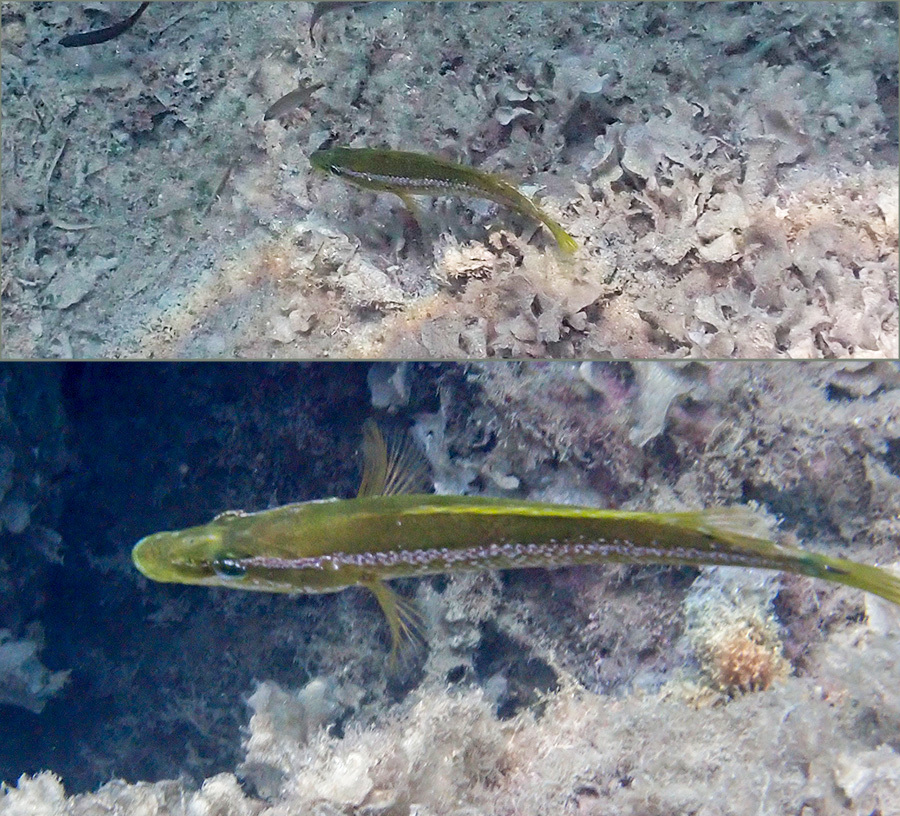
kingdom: Animalia
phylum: Chordata
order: Perciformes
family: Labridae
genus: Labrus
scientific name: Labrus viridis
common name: Green wrasse
